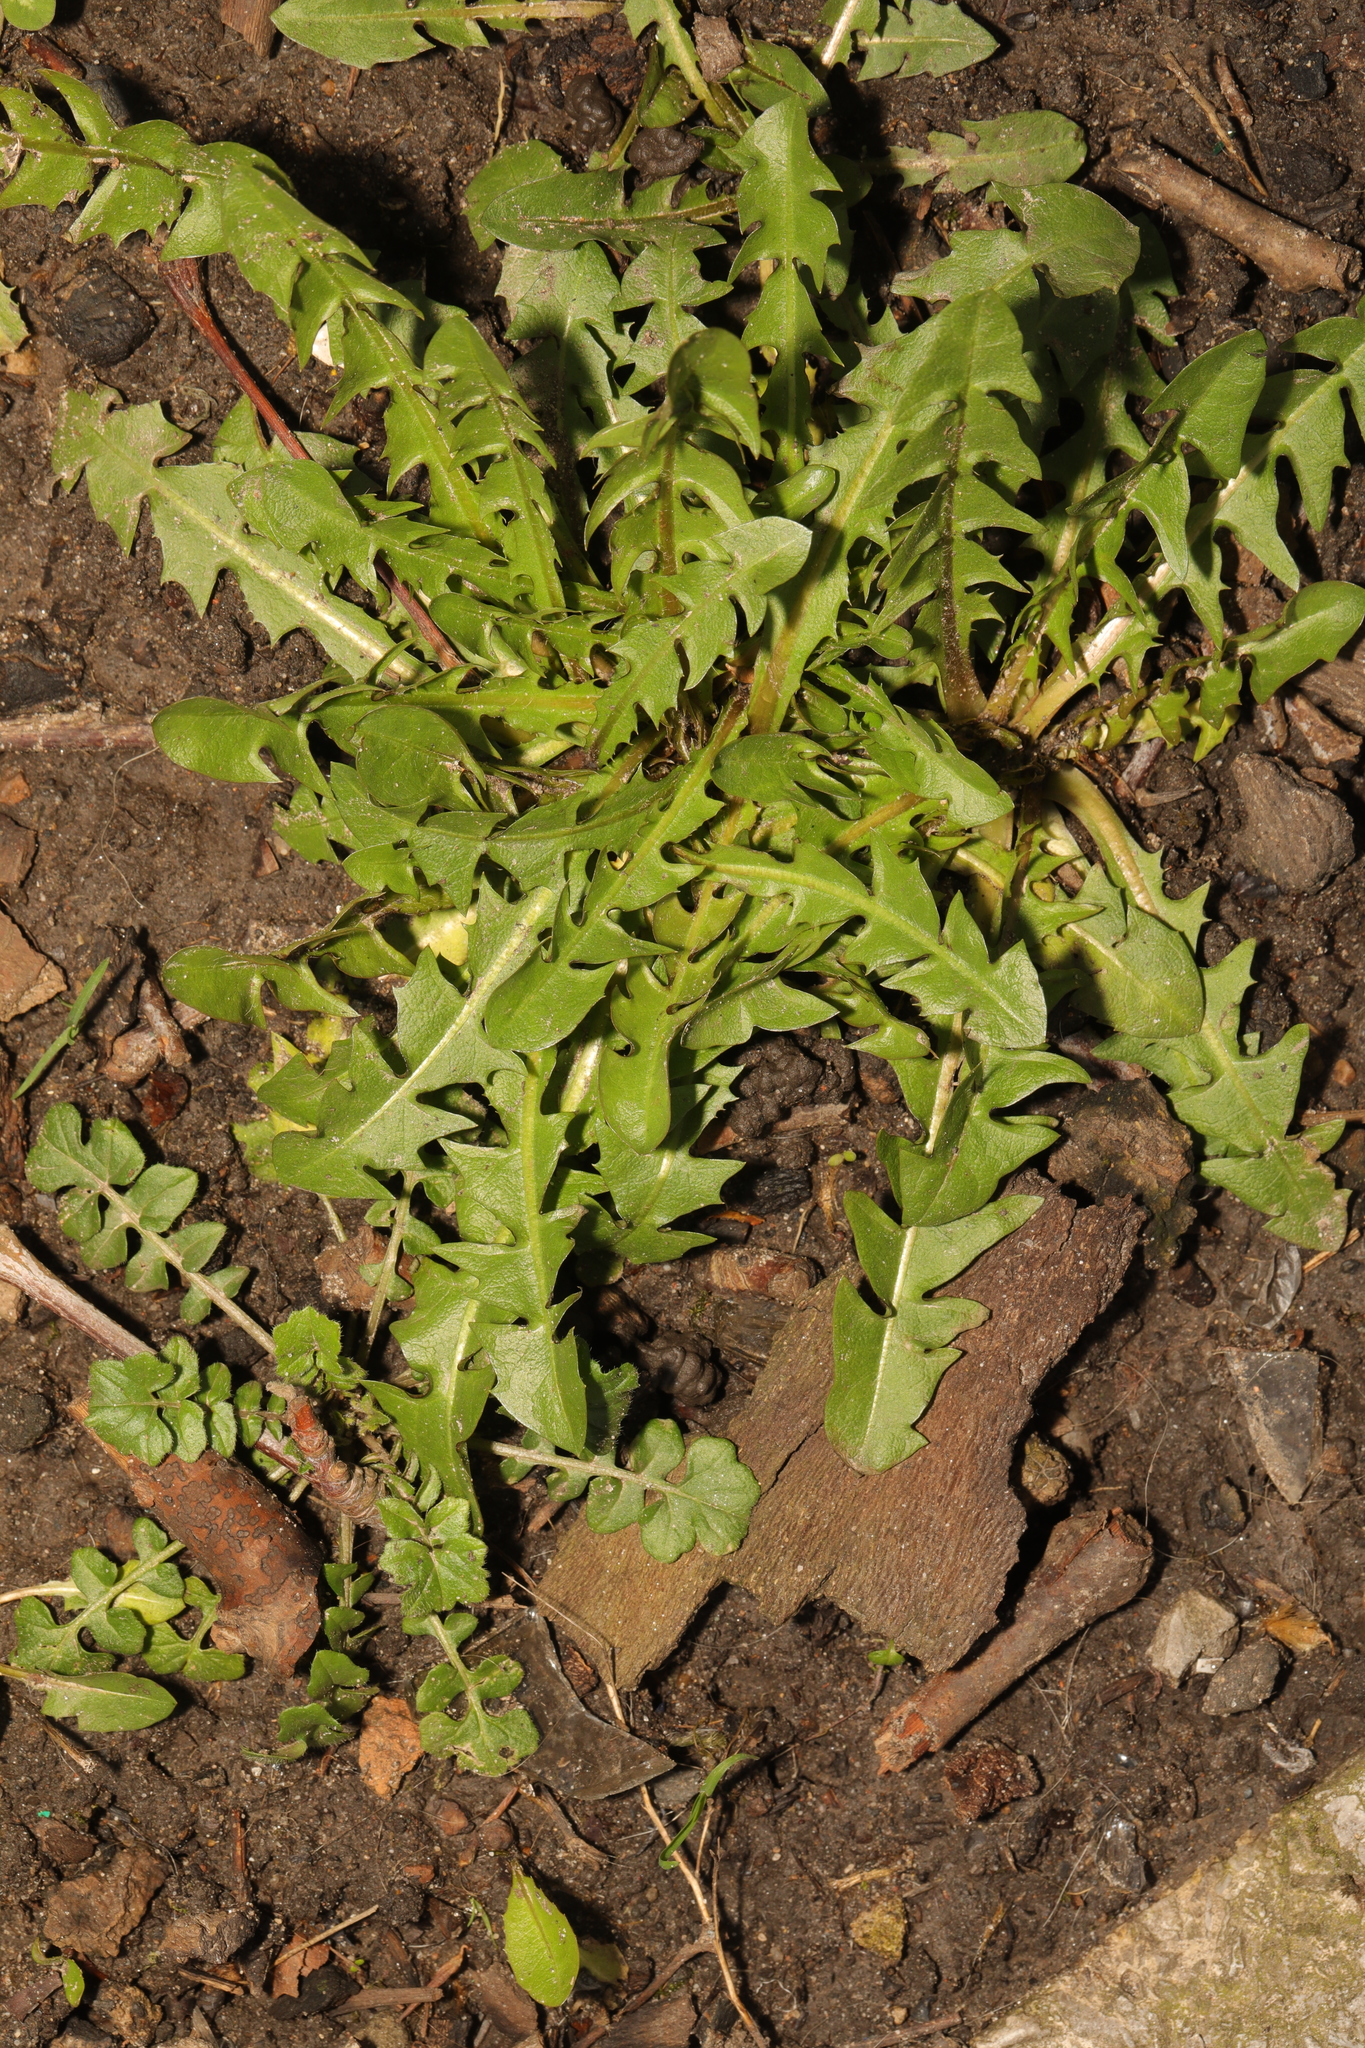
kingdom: Plantae
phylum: Tracheophyta
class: Magnoliopsida
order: Asterales
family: Asteraceae
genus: Taraxacum
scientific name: Taraxacum officinale
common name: Common dandelion
